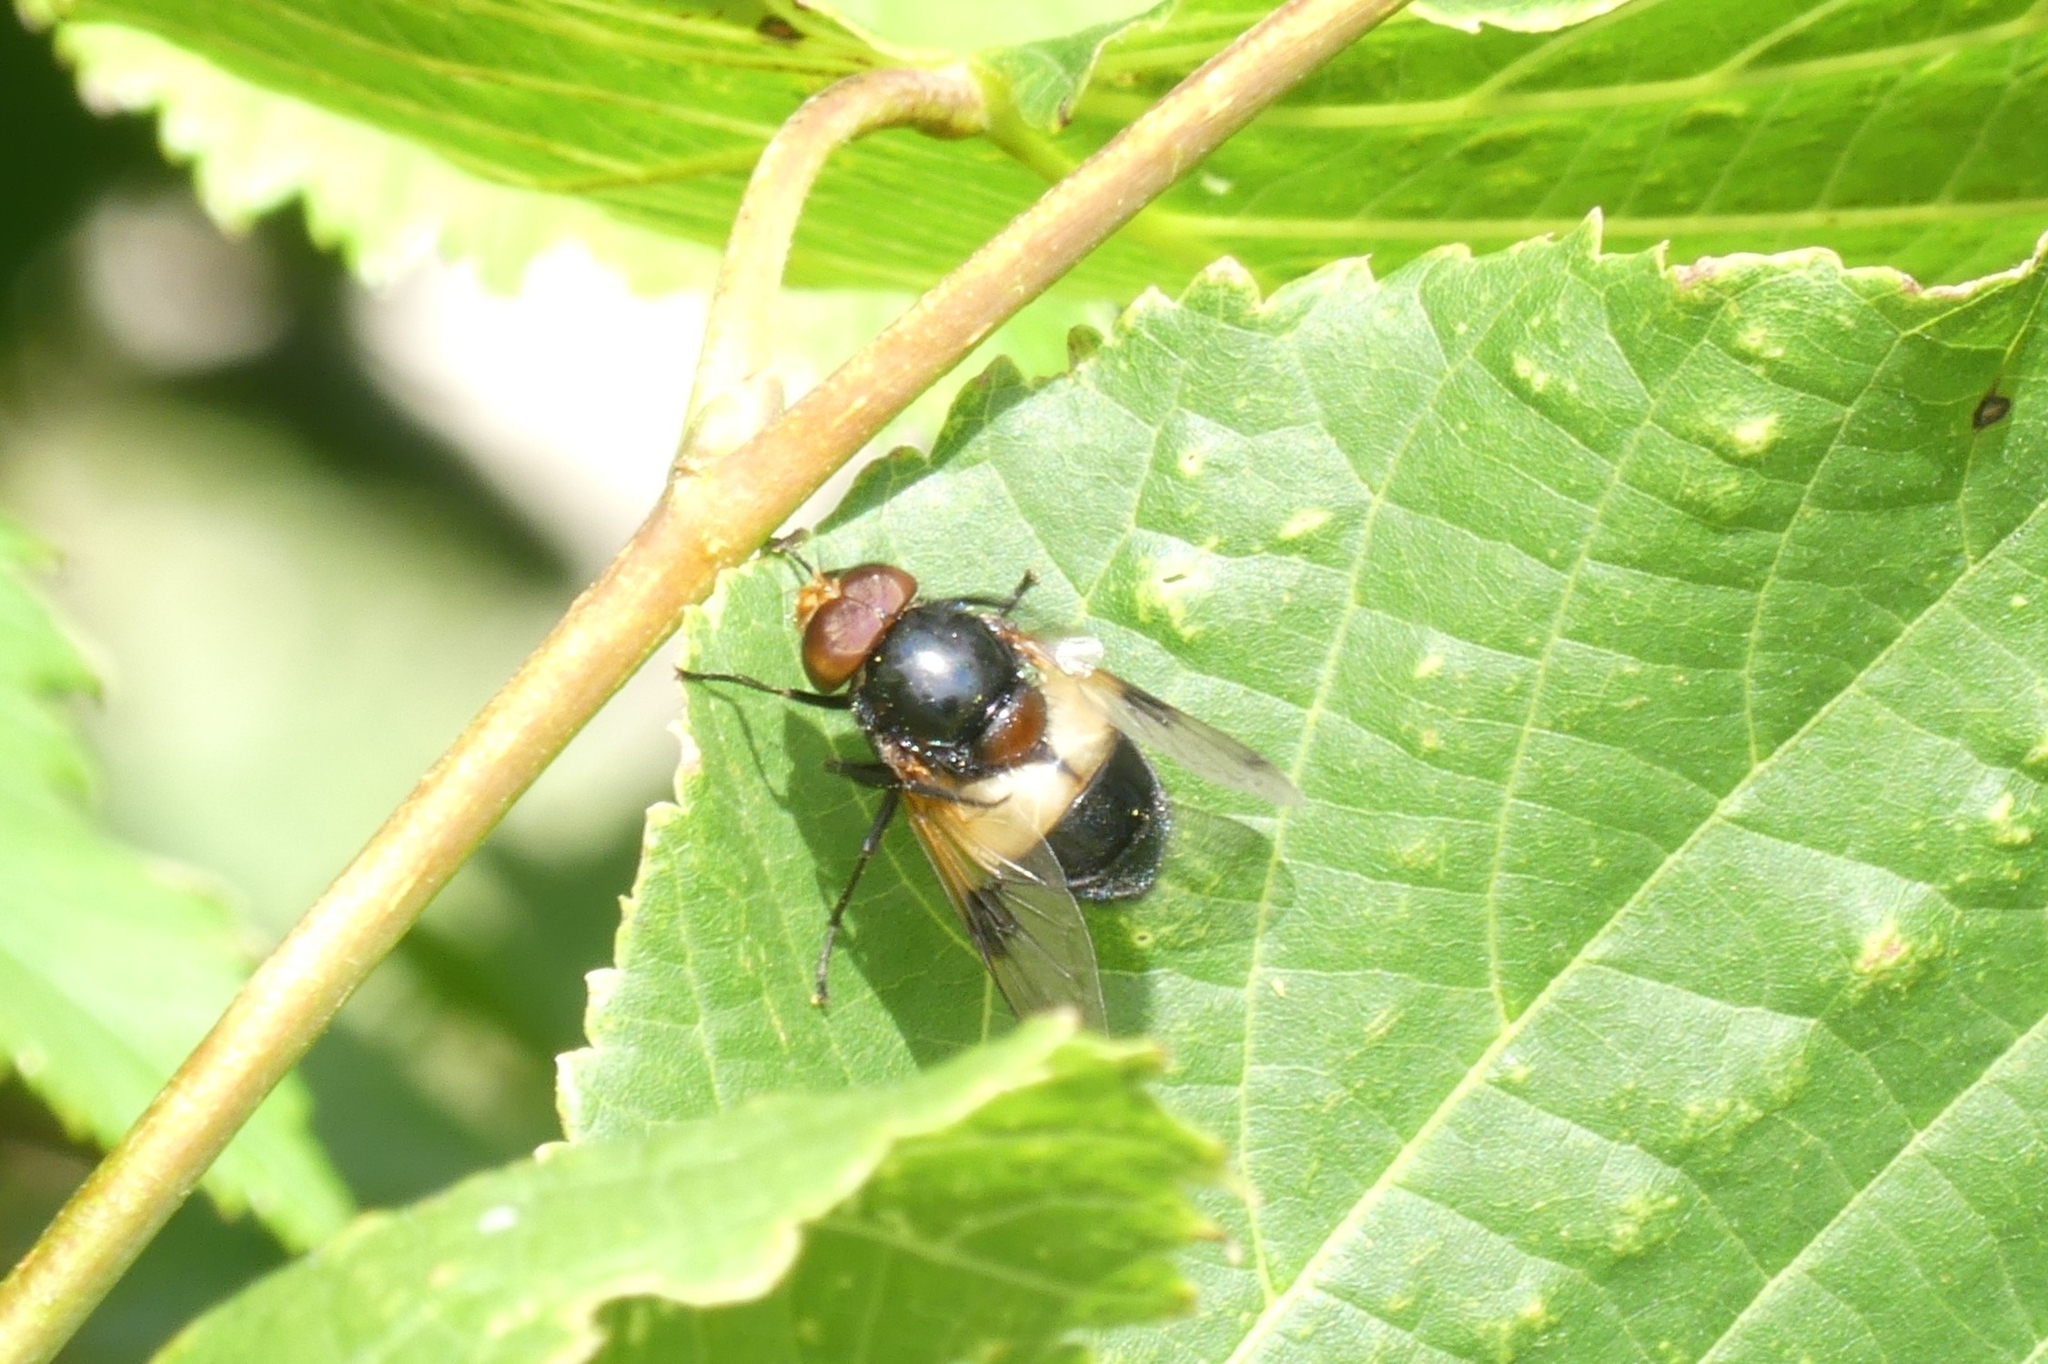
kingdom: Animalia
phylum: Arthropoda
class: Insecta
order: Diptera
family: Syrphidae
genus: Volucella
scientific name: Volucella pellucens
